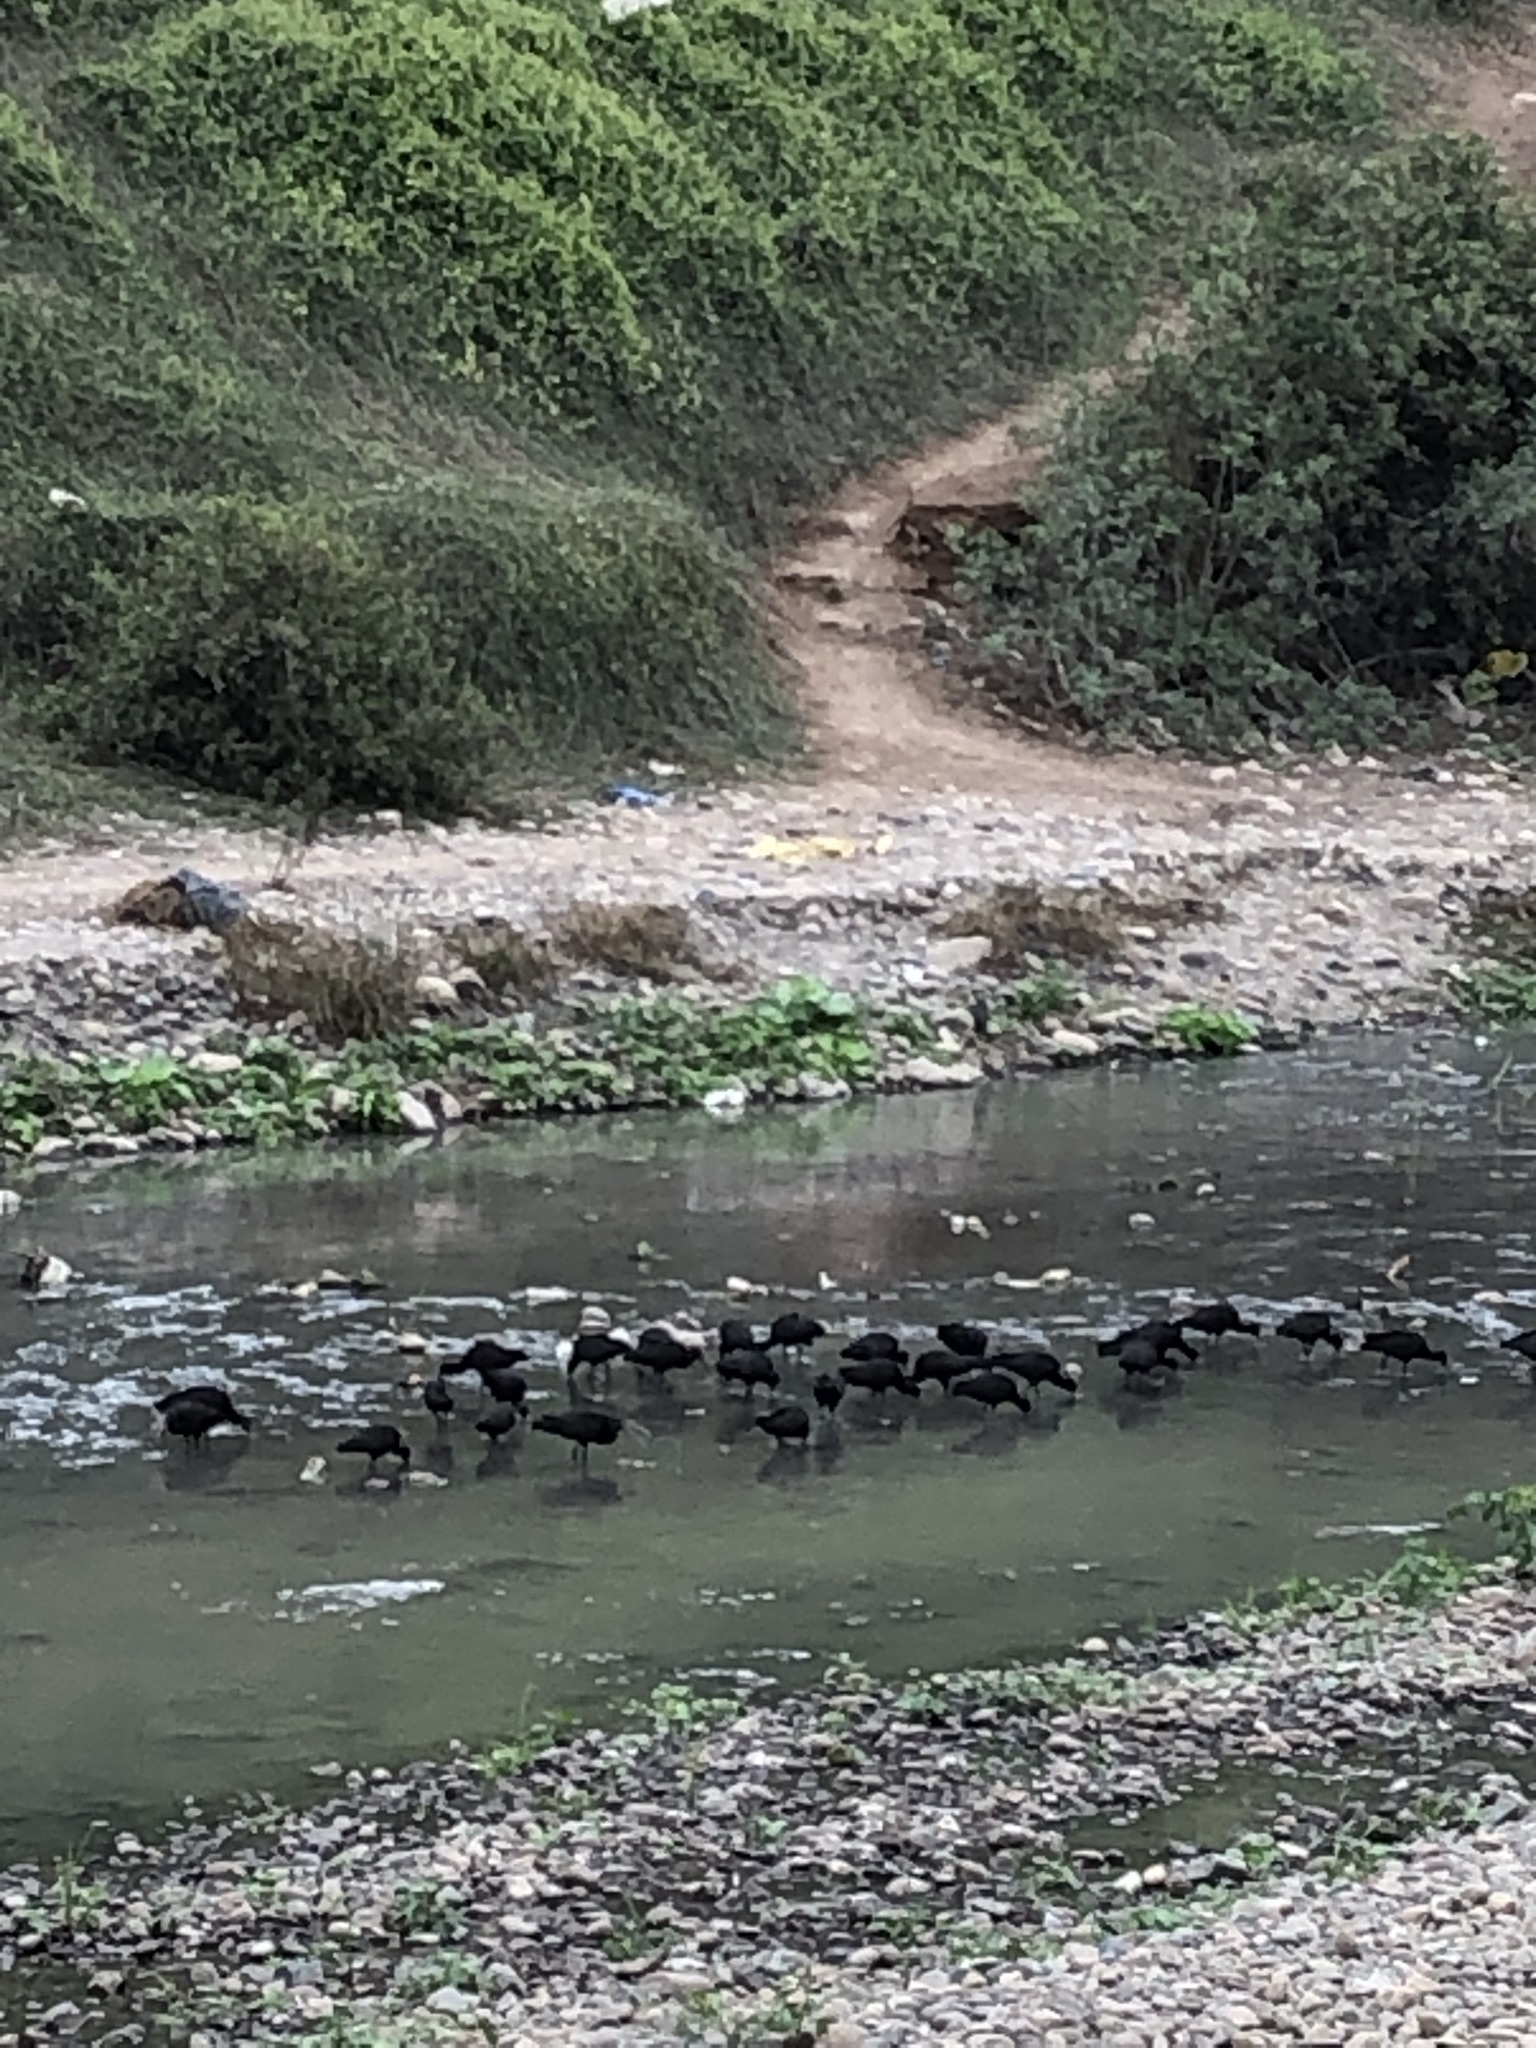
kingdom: Animalia
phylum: Chordata
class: Aves
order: Pelecaniformes
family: Threskiornithidae
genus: Plegadis
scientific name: Plegadis ridgwayi
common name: Puna ibis
